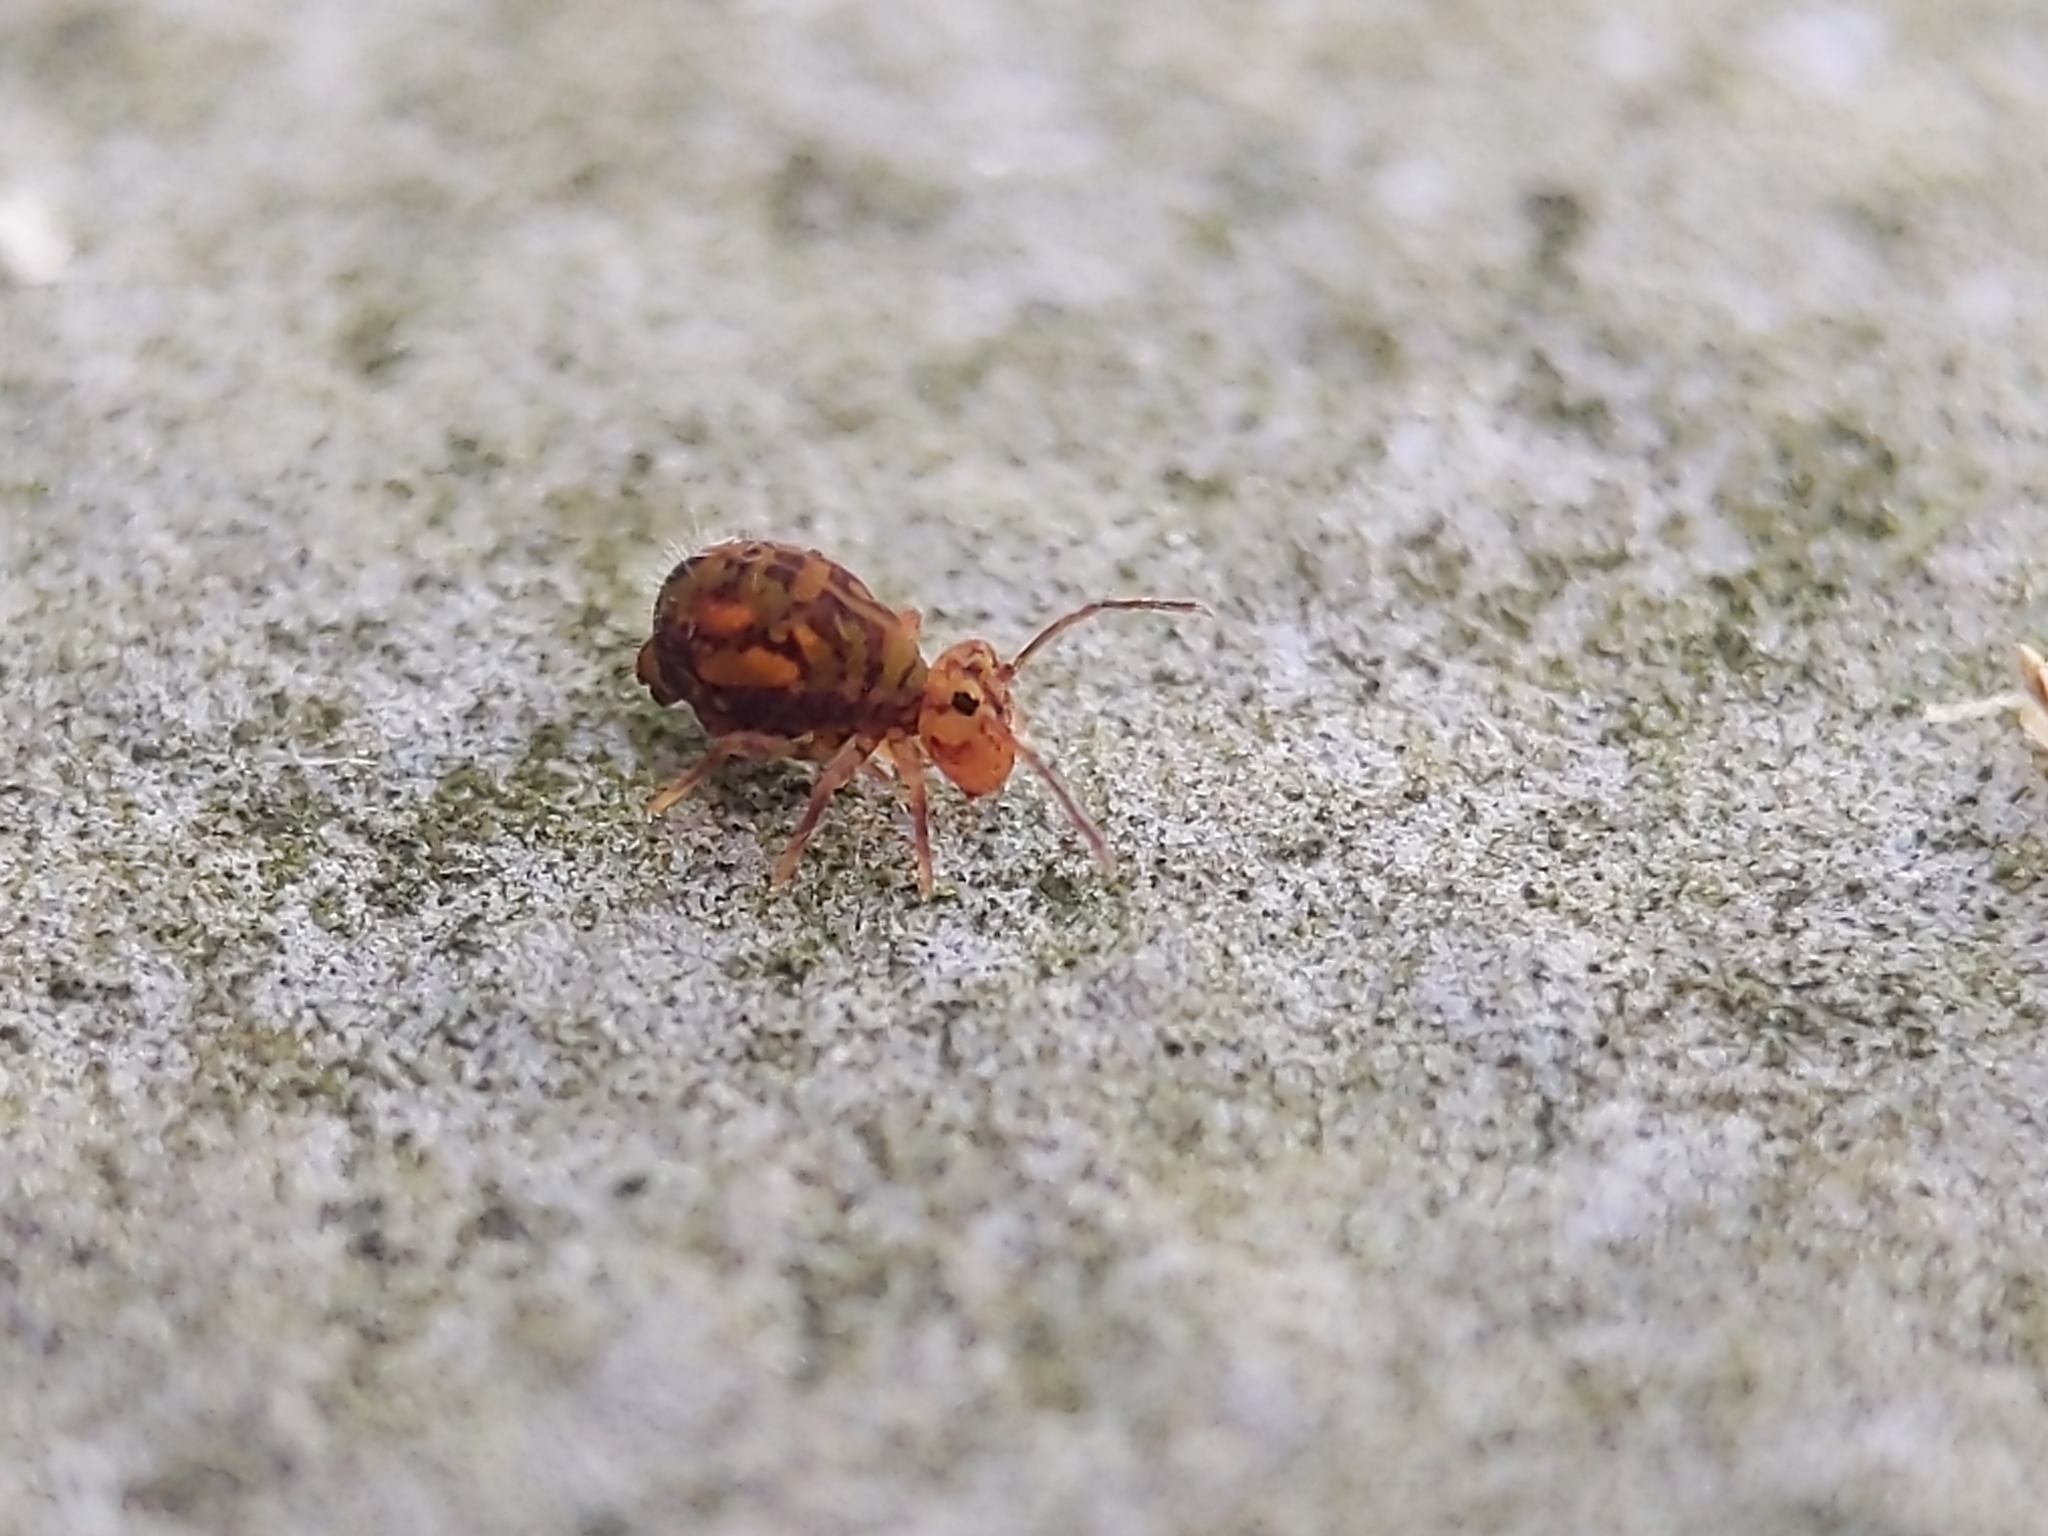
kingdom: Animalia
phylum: Arthropoda
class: Collembola
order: Symphypleona
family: Dicyrtomidae
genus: Dicyrtomina
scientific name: Dicyrtomina ornata
